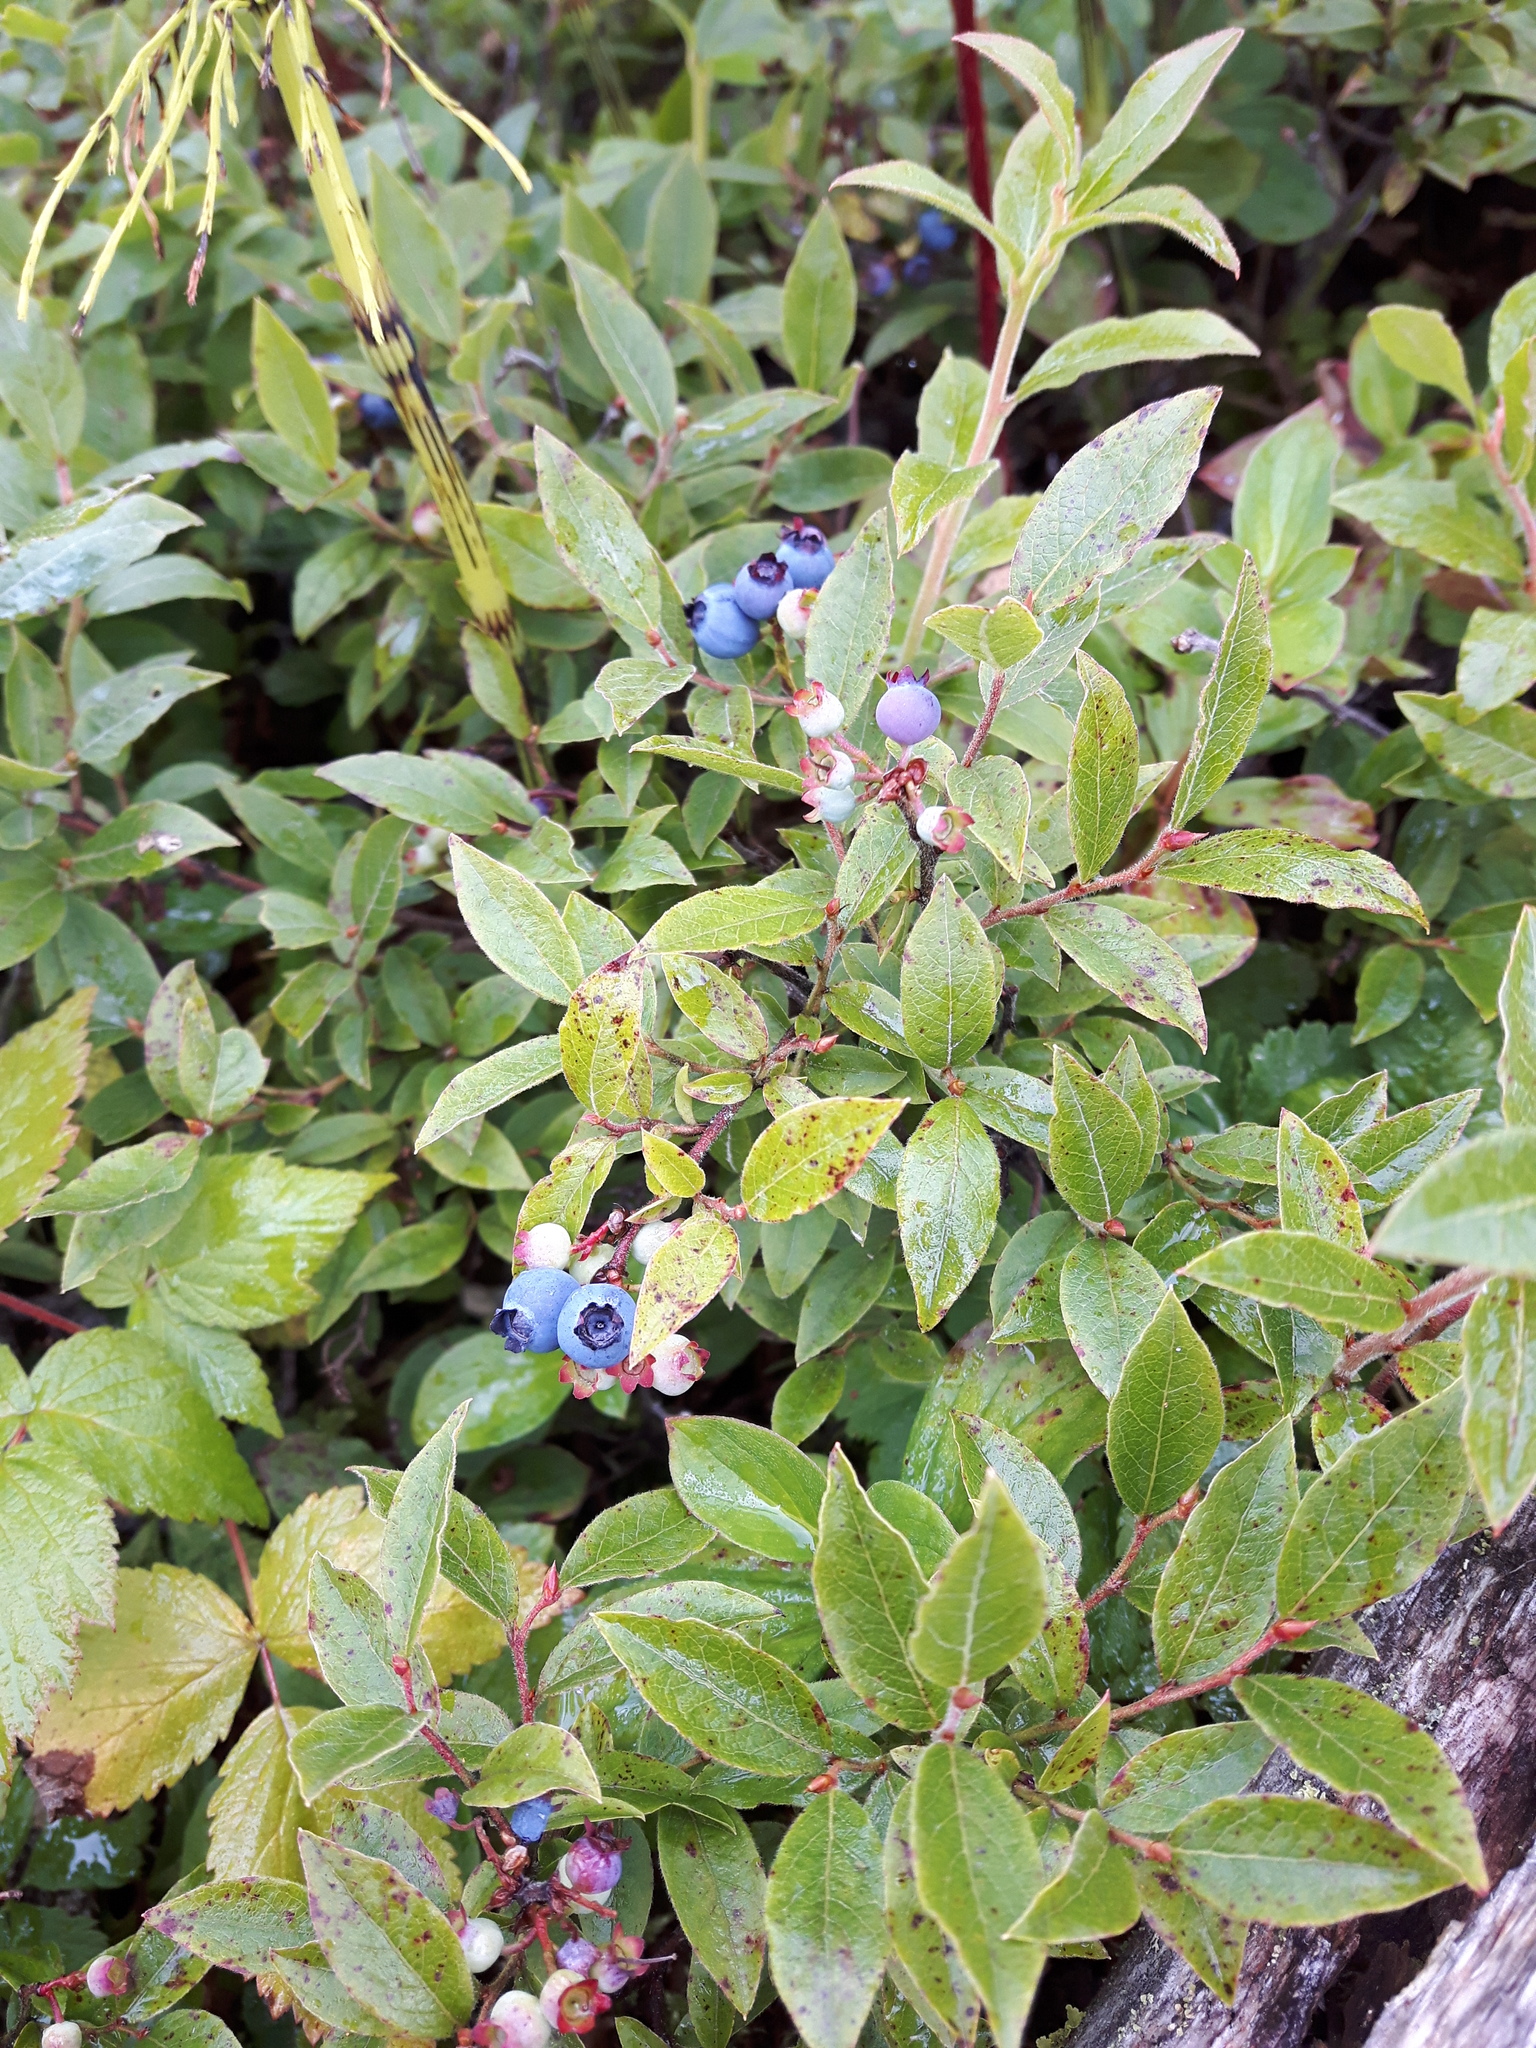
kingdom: Plantae
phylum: Tracheophyta
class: Magnoliopsida
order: Ericales
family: Ericaceae
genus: Vaccinium
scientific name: Vaccinium myrtilloides
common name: Canada blueberry
